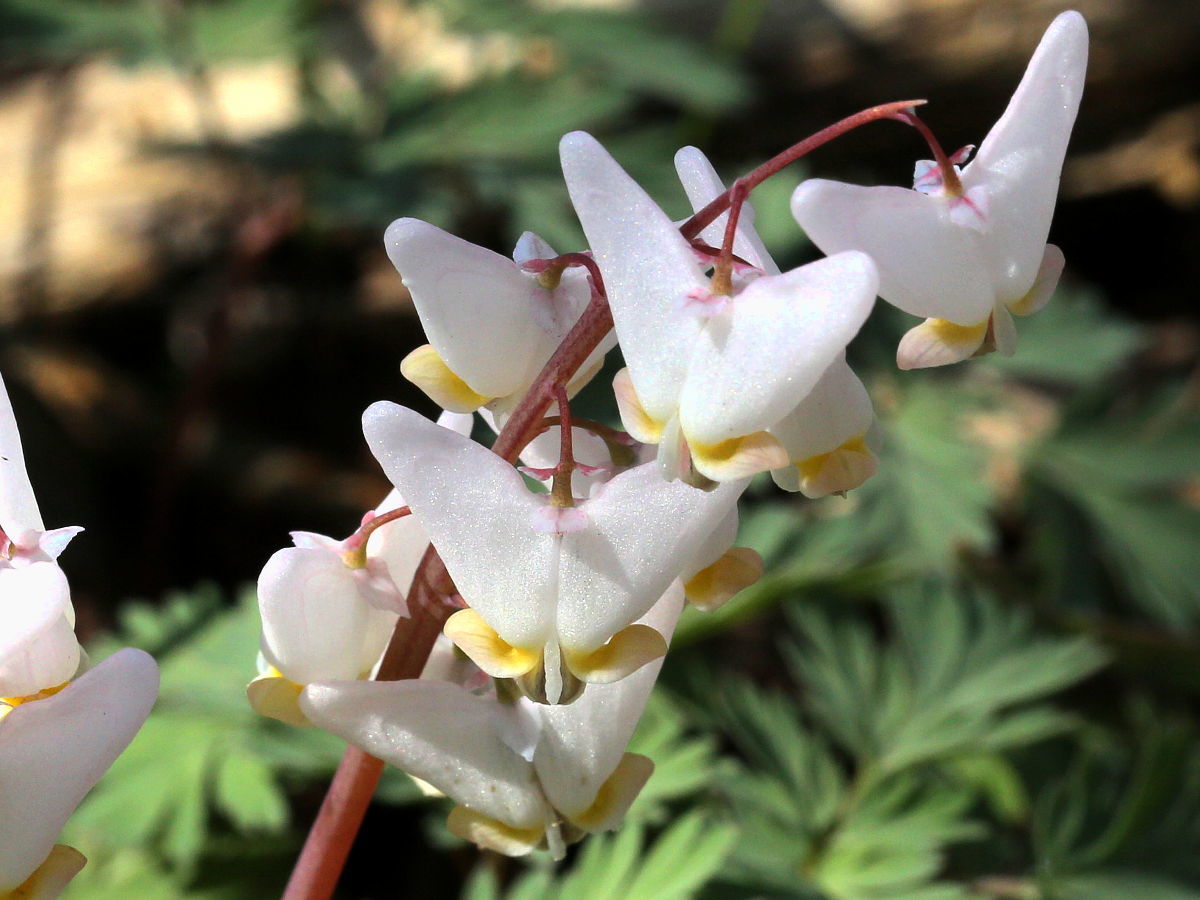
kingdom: Plantae
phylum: Tracheophyta
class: Magnoliopsida
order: Ranunculales
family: Papaveraceae
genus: Dicentra
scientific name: Dicentra cucullaria
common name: Dutchman's breeches
